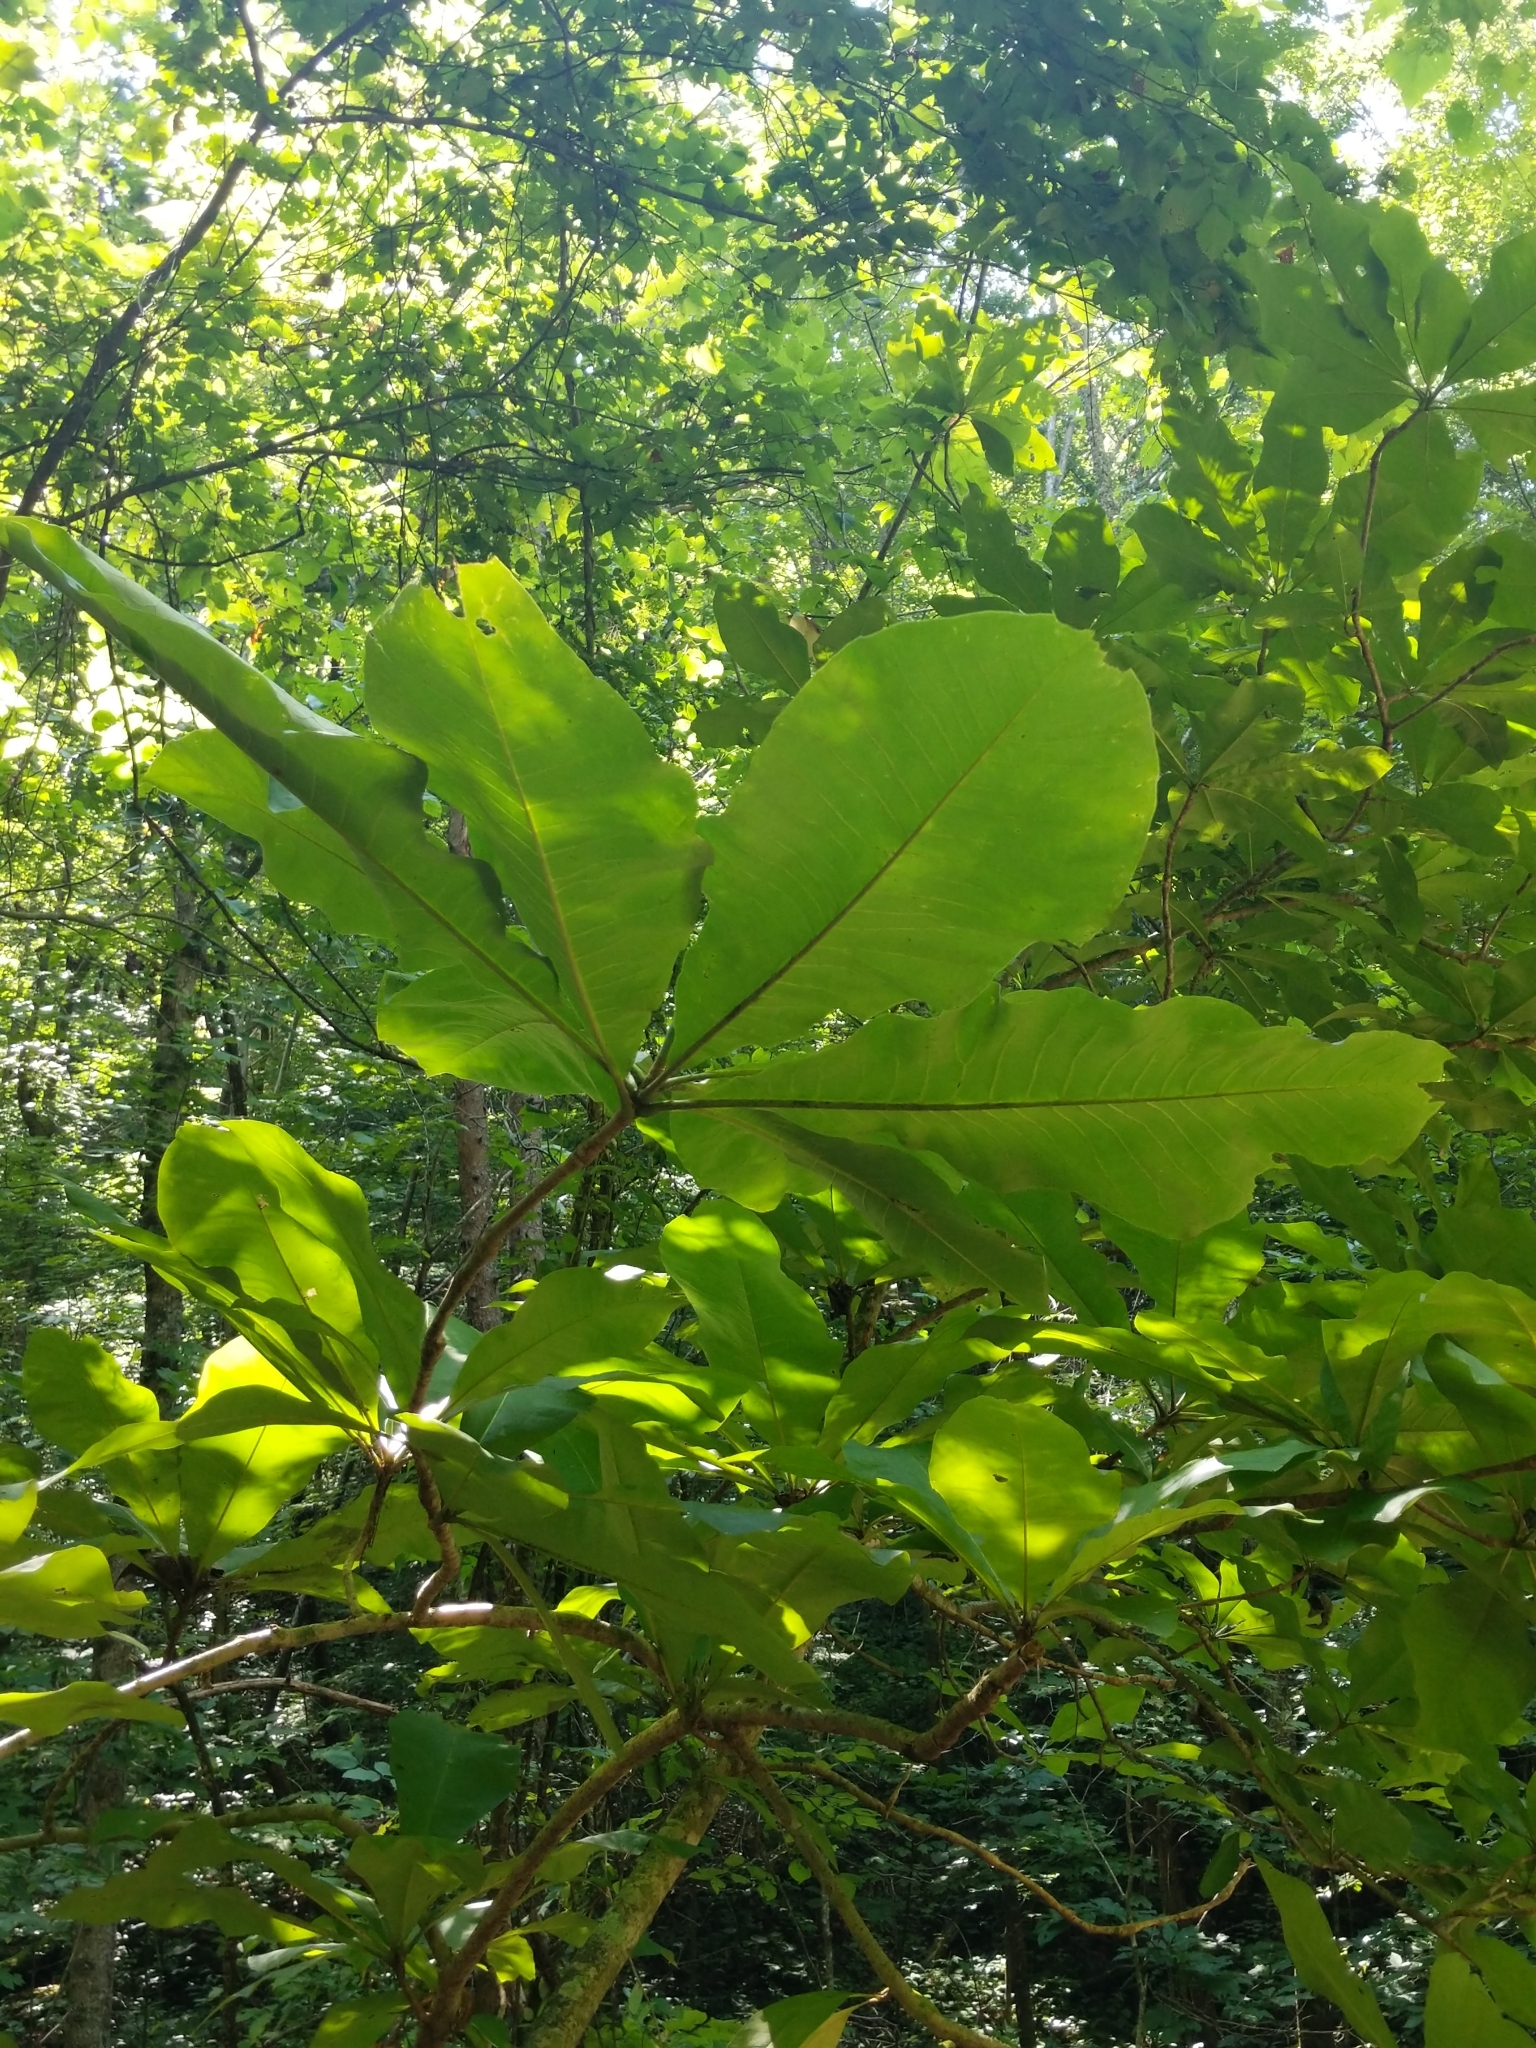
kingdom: Plantae
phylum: Tracheophyta
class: Magnoliopsida
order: Magnoliales
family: Magnoliaceae
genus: Magnolia
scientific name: Magnolia tripetala
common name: Umbrella magnolia
